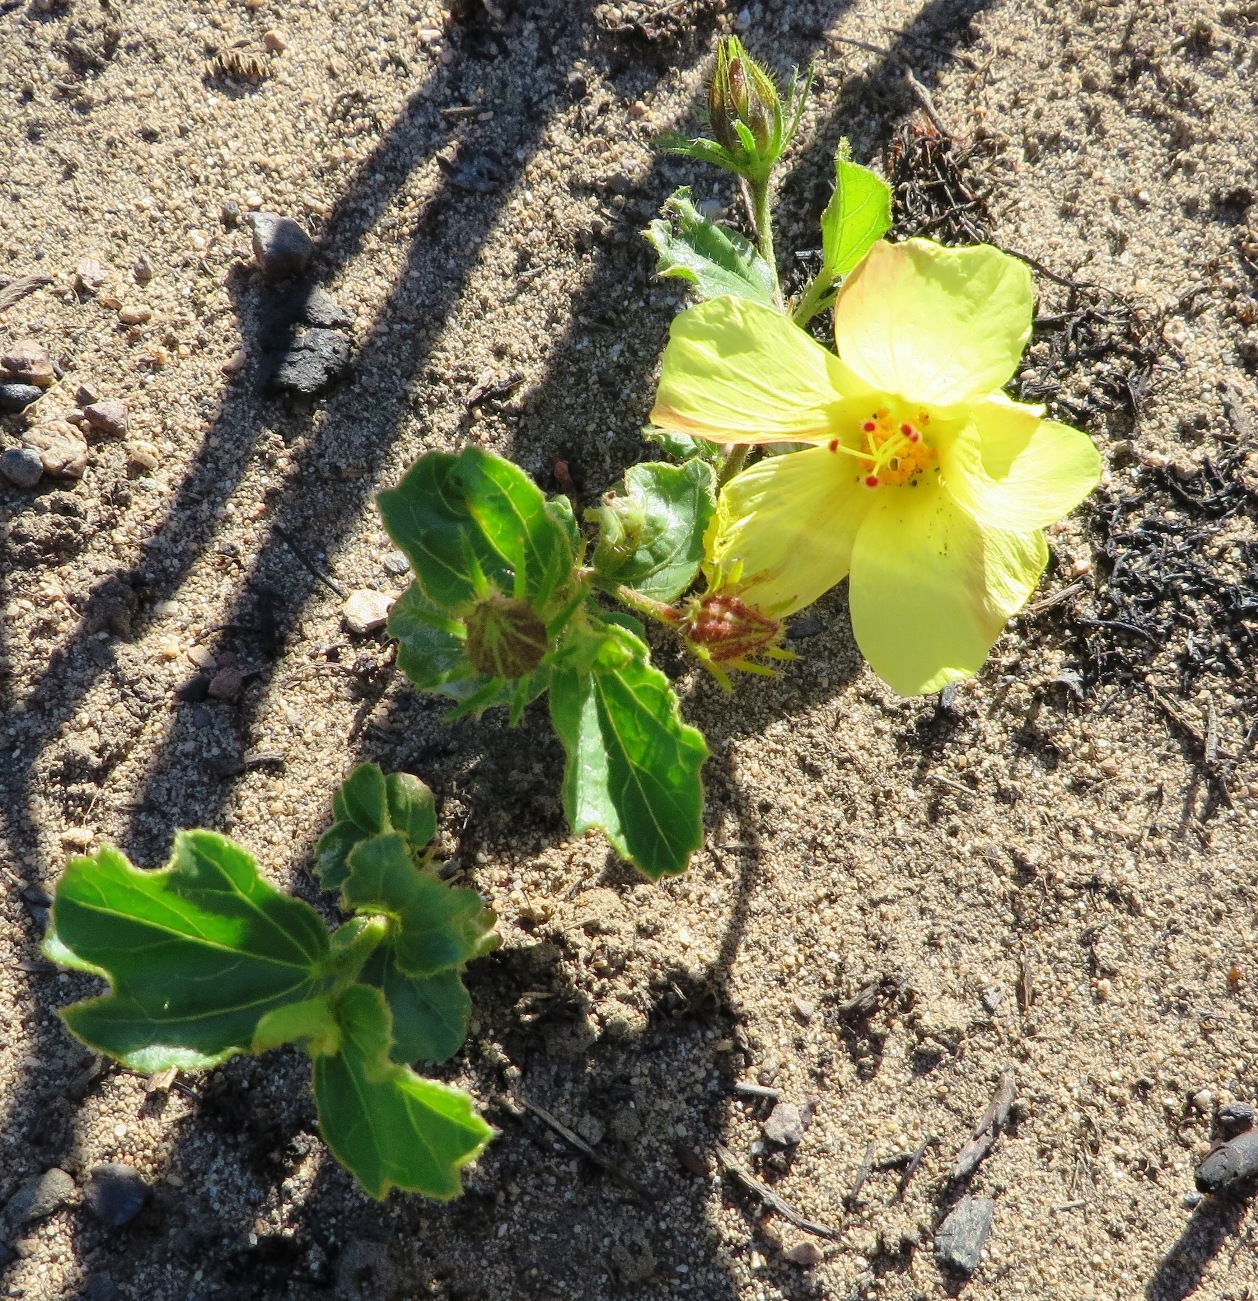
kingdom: Plantae
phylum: Tracheophyta
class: Magnoliopsida
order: Malvales
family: Malvaceae
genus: Hibiscus
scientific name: Hibiscus aethiopicus
